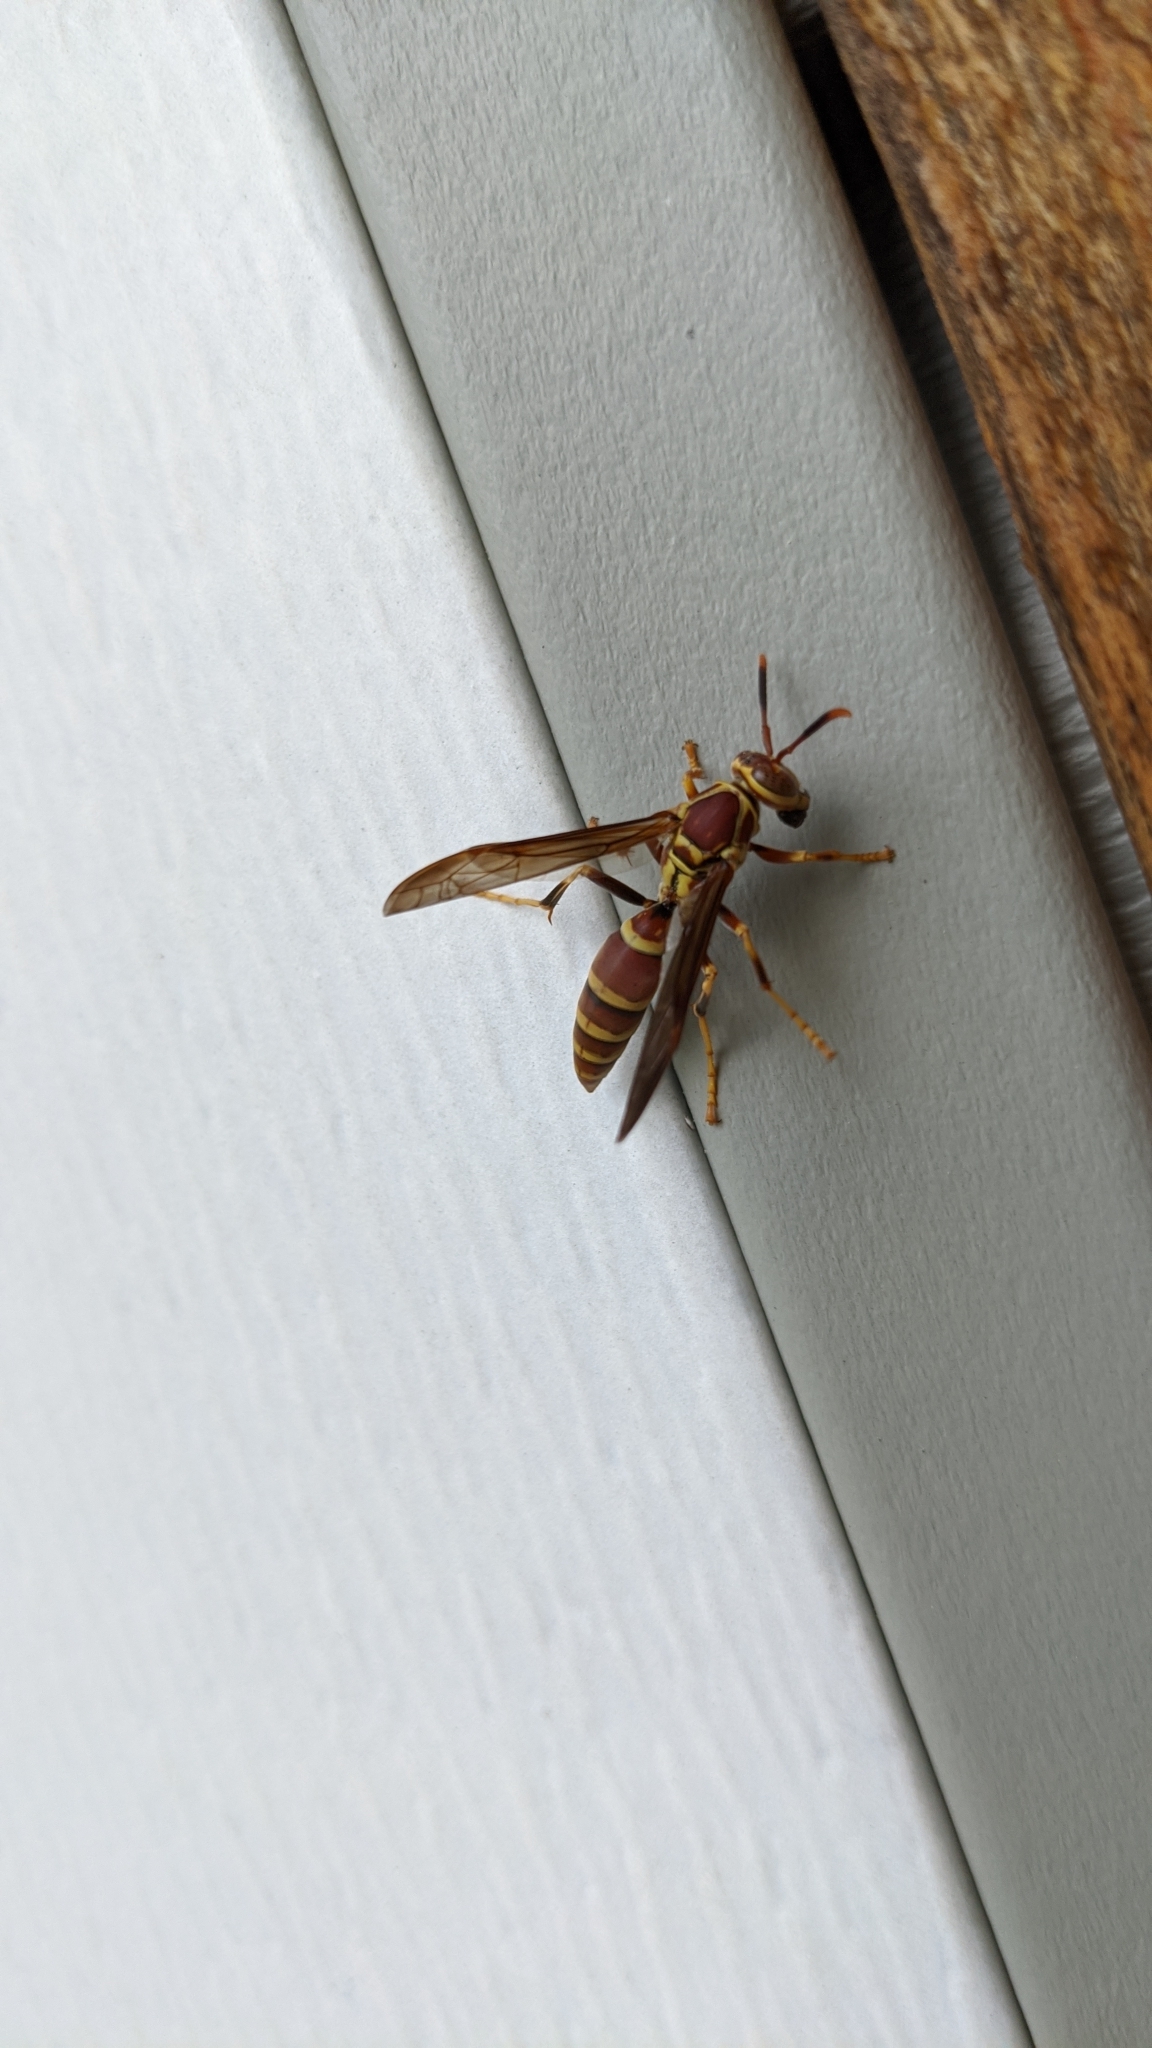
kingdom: Animalia
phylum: Arthropoda
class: Insecta
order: Hymenoptera
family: Eumenidae
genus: Polistes
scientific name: Polistes exclamans
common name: Paper wasp
